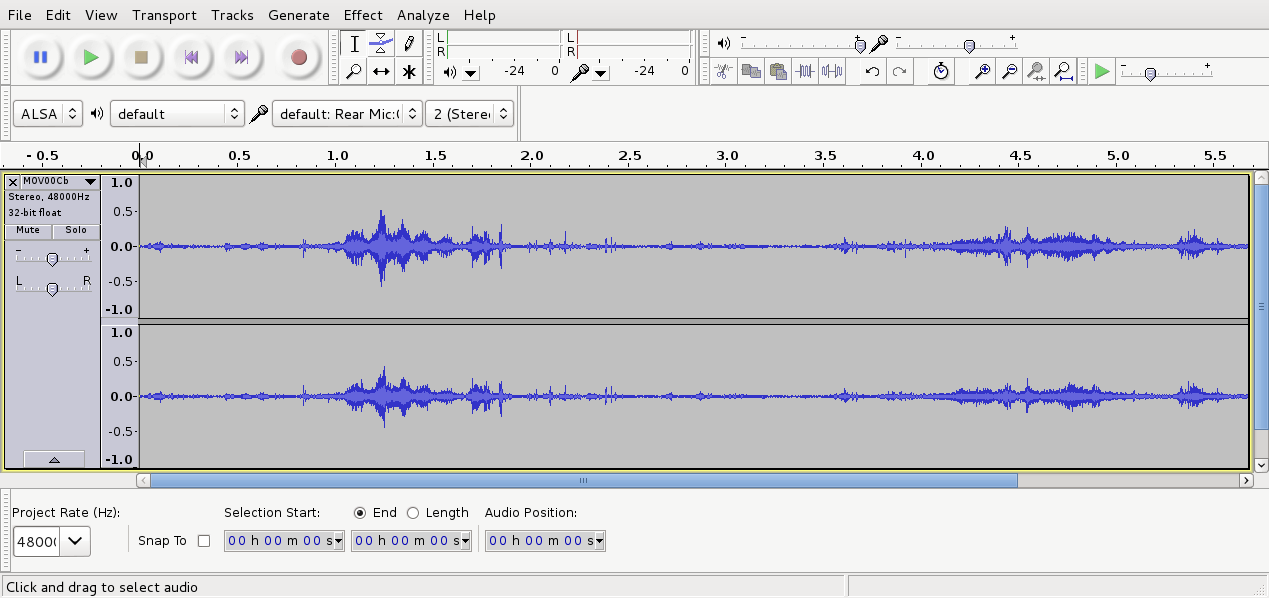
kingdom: Animalia
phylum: Chordata
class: Aves
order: Passeriformes
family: Turdidae
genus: Turdus
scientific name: Turdus merula
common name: Common blackbird
